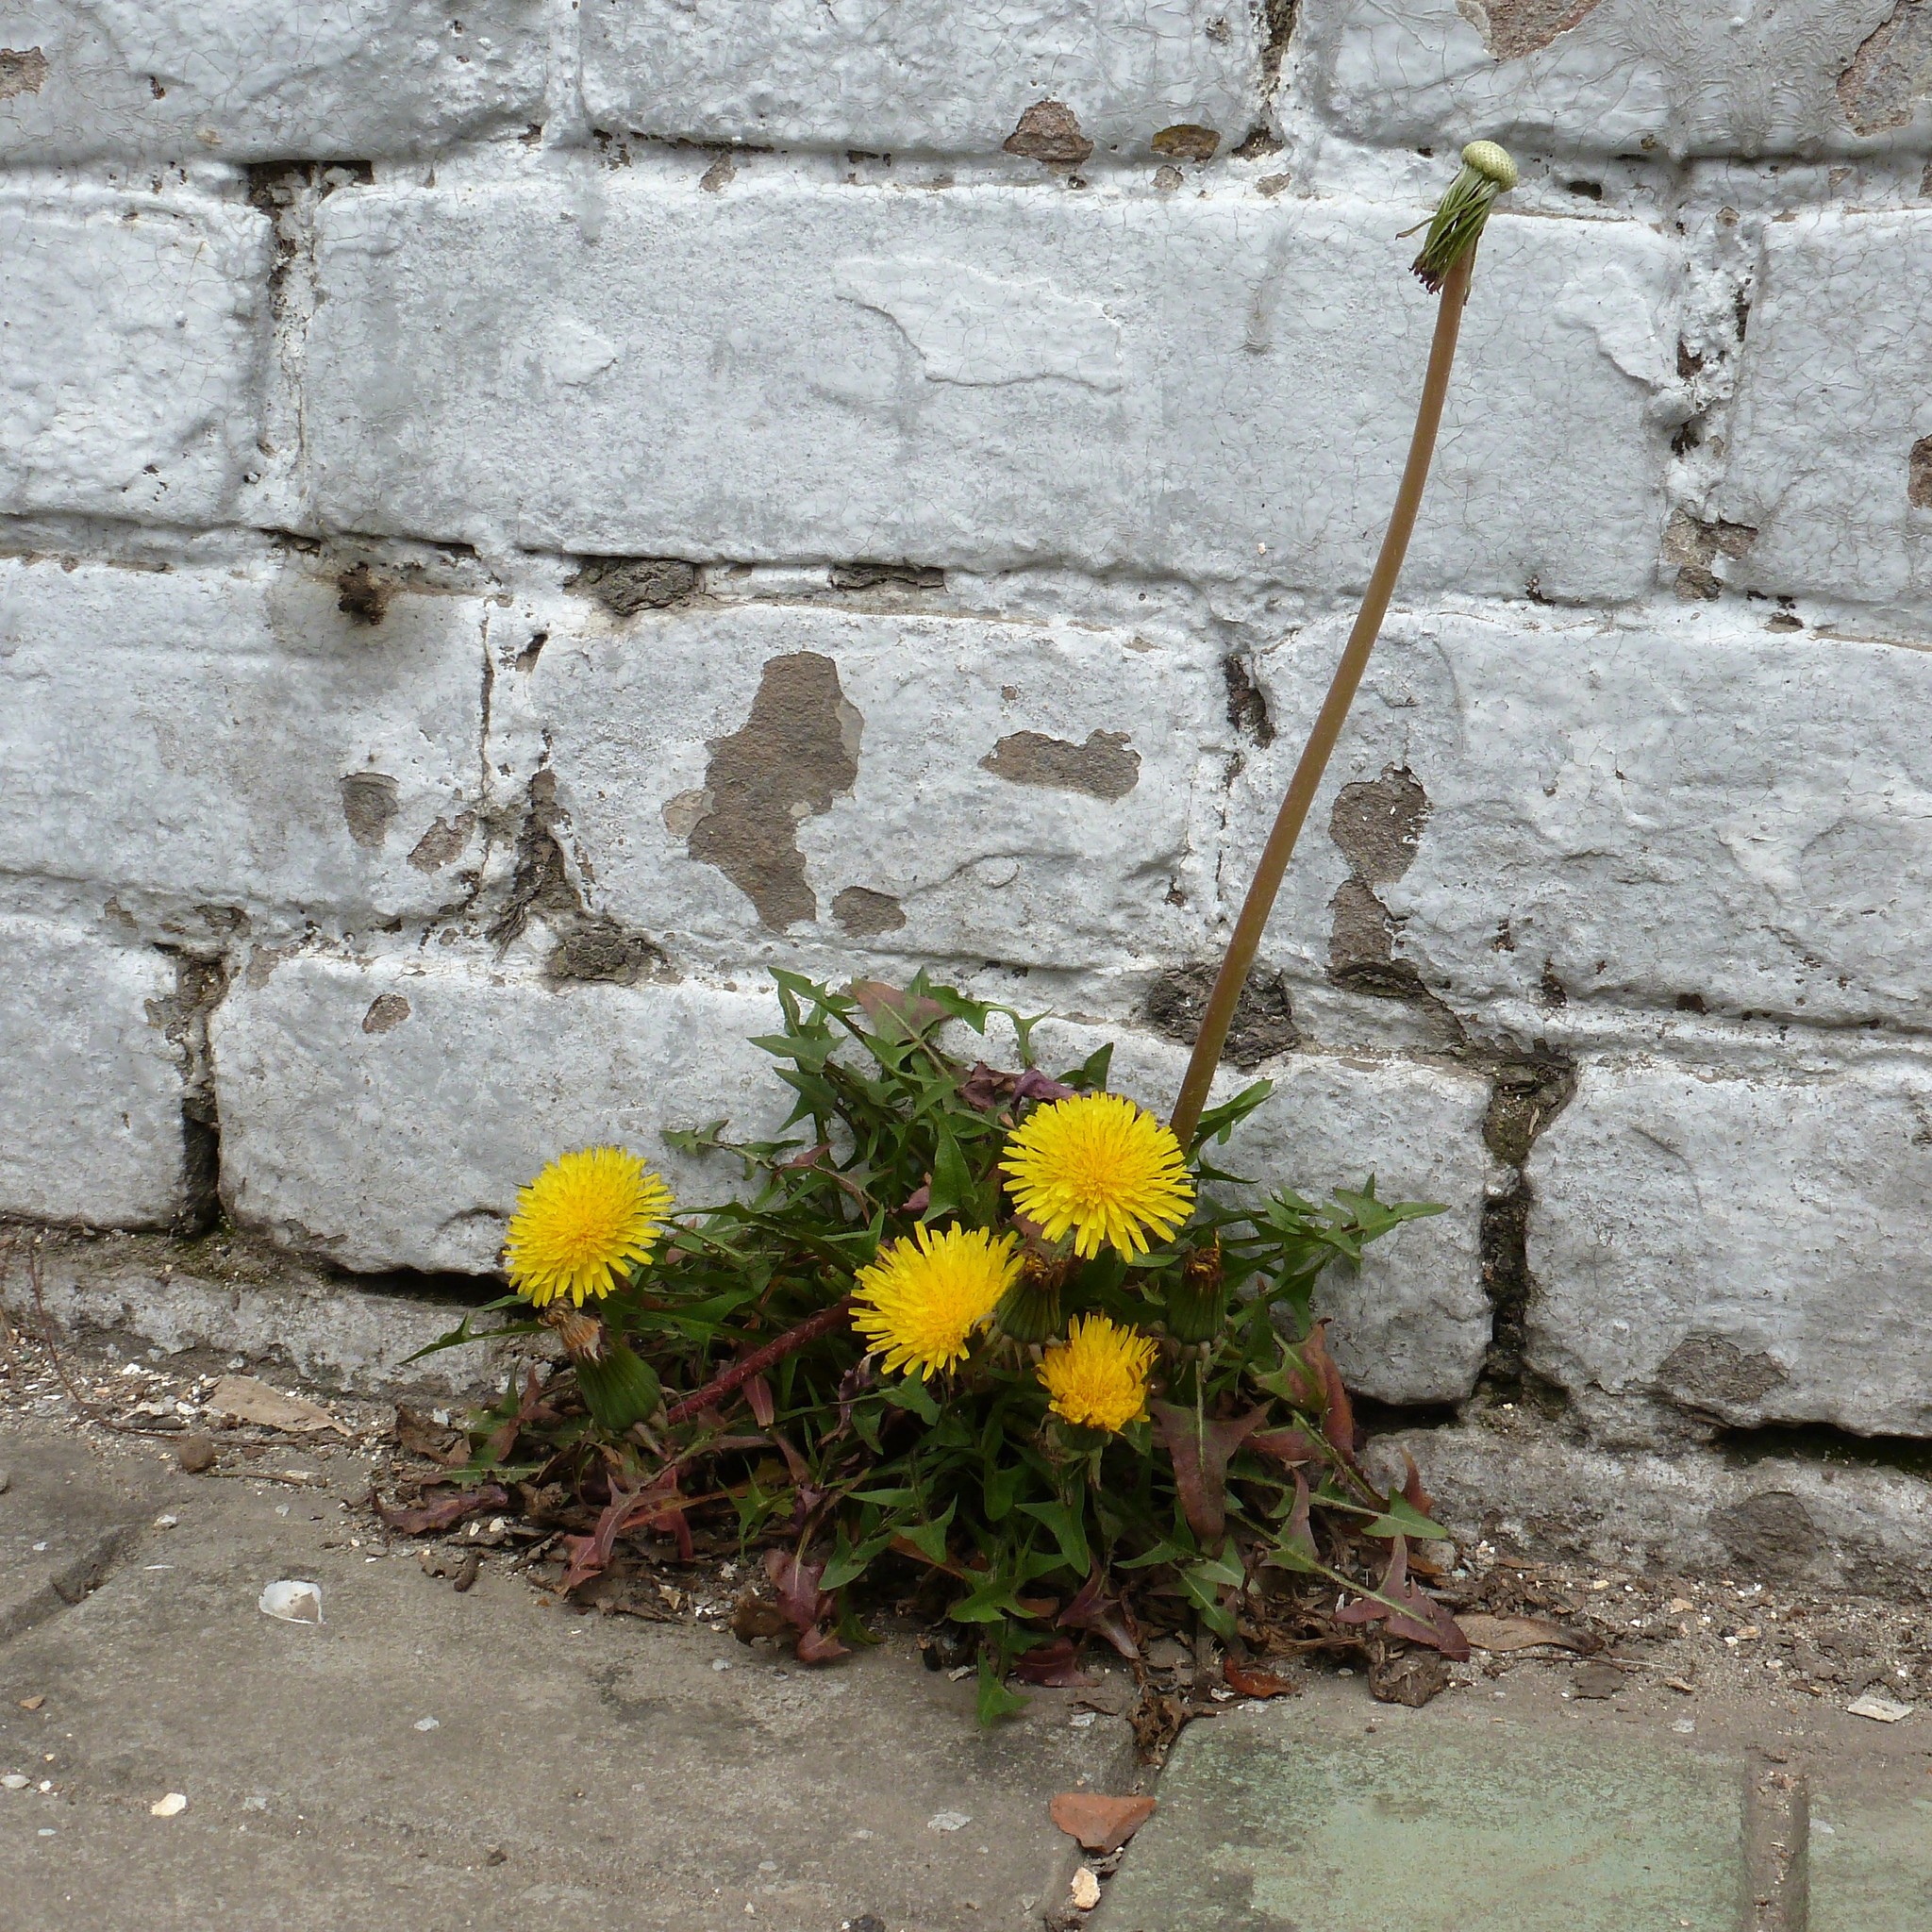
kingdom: Plantae
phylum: Tracheophyta
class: Magnoliopsida
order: Asterales
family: Asteraceae
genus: Taraxacum
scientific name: Taraxacum officinale
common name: Common dandelion
